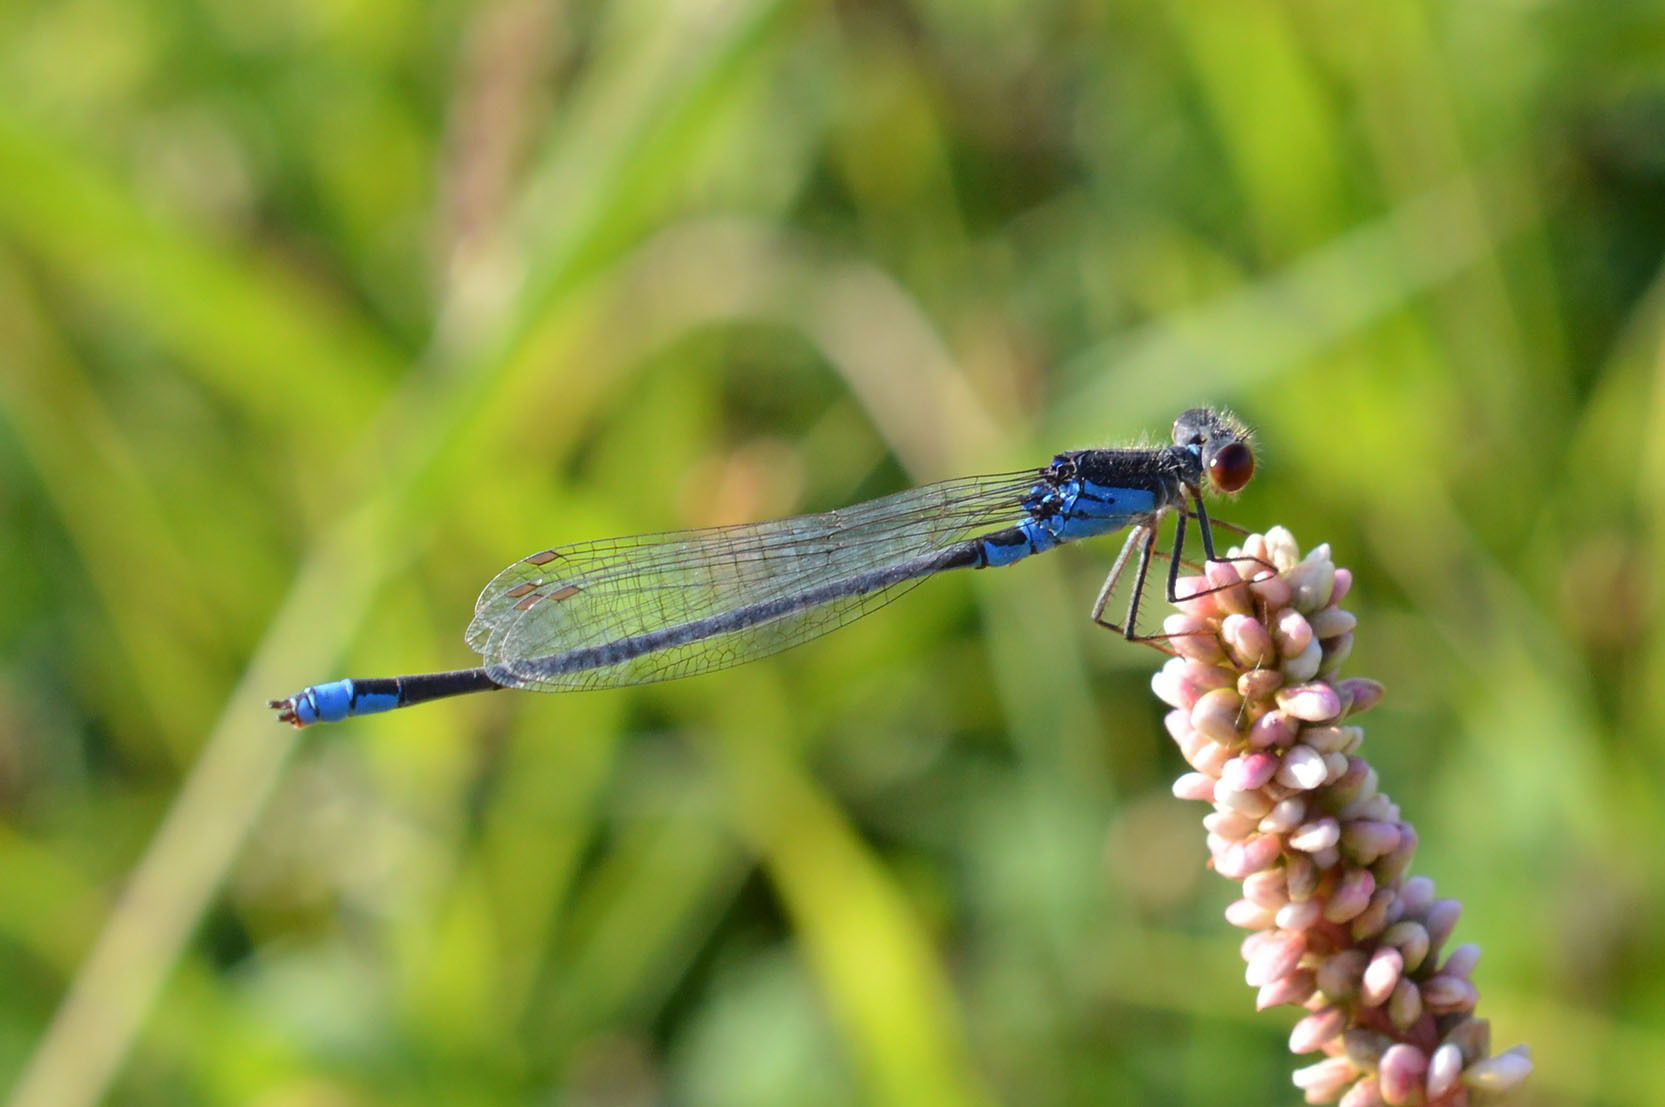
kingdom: Animalia
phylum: Arthropoda
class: Insecta
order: Odonata
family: Coenagrionidae
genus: Erythromma
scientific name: Erythromma viridulum
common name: Small red-eyed damselfly
